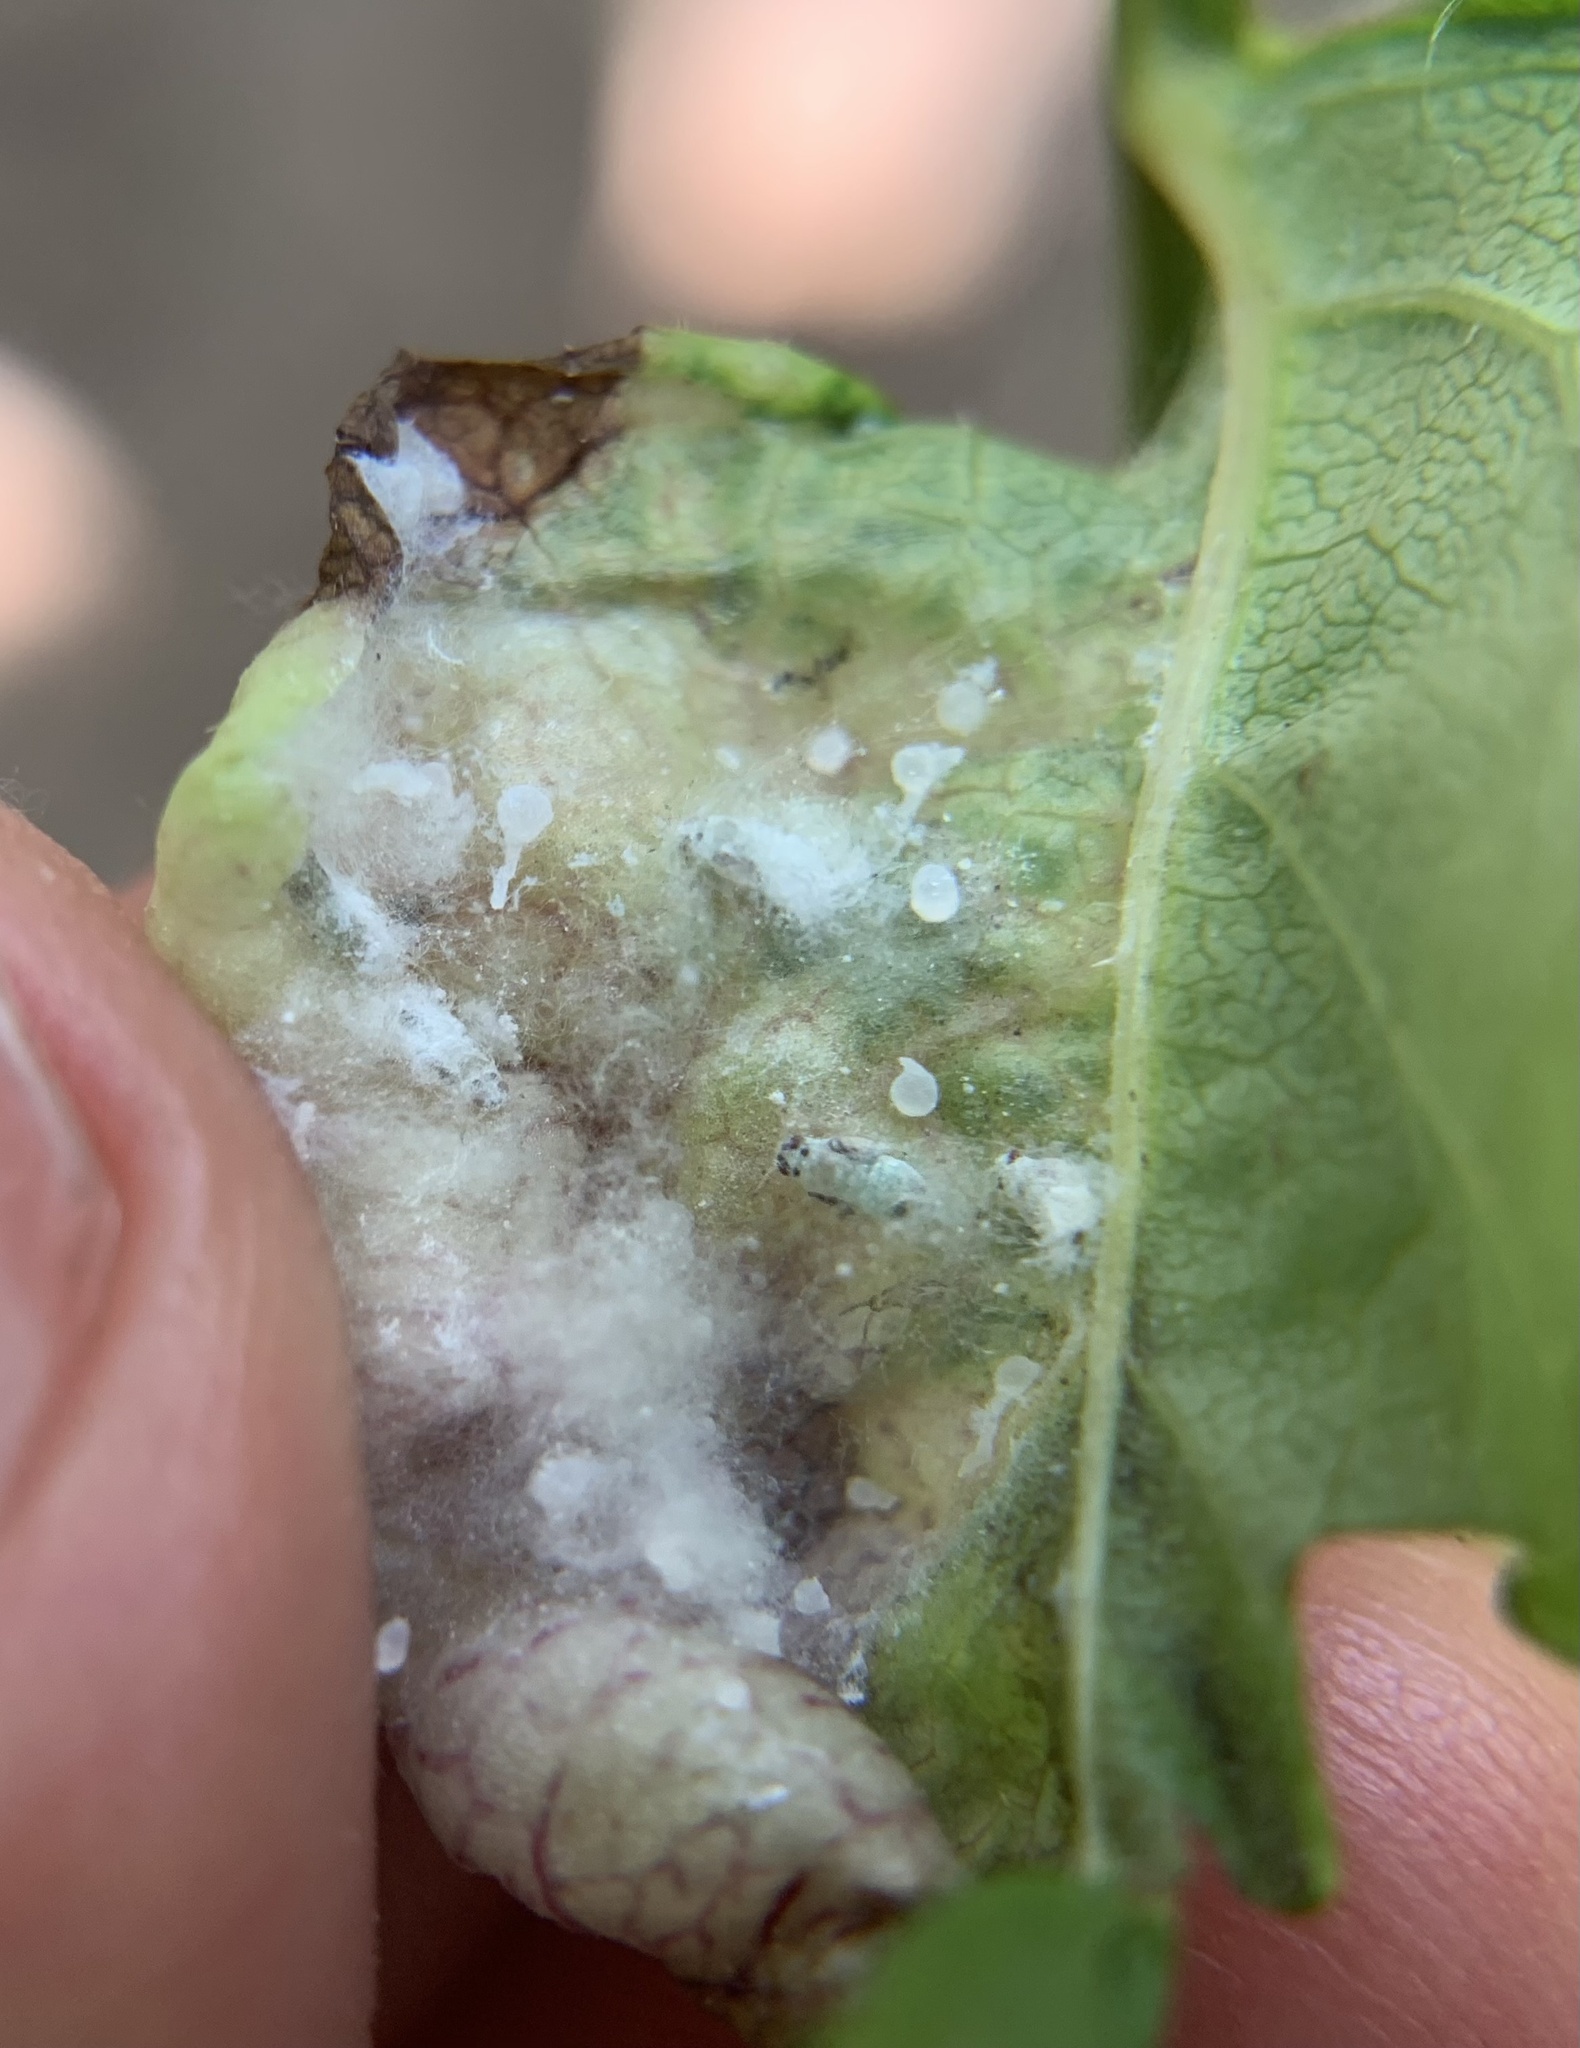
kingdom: Animalia
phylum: Arthropoda
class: Insecta
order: Hemiptera
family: Liviidae
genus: Psyllopsis
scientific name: Psyllopsis fraxini
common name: Jumping plant louse
